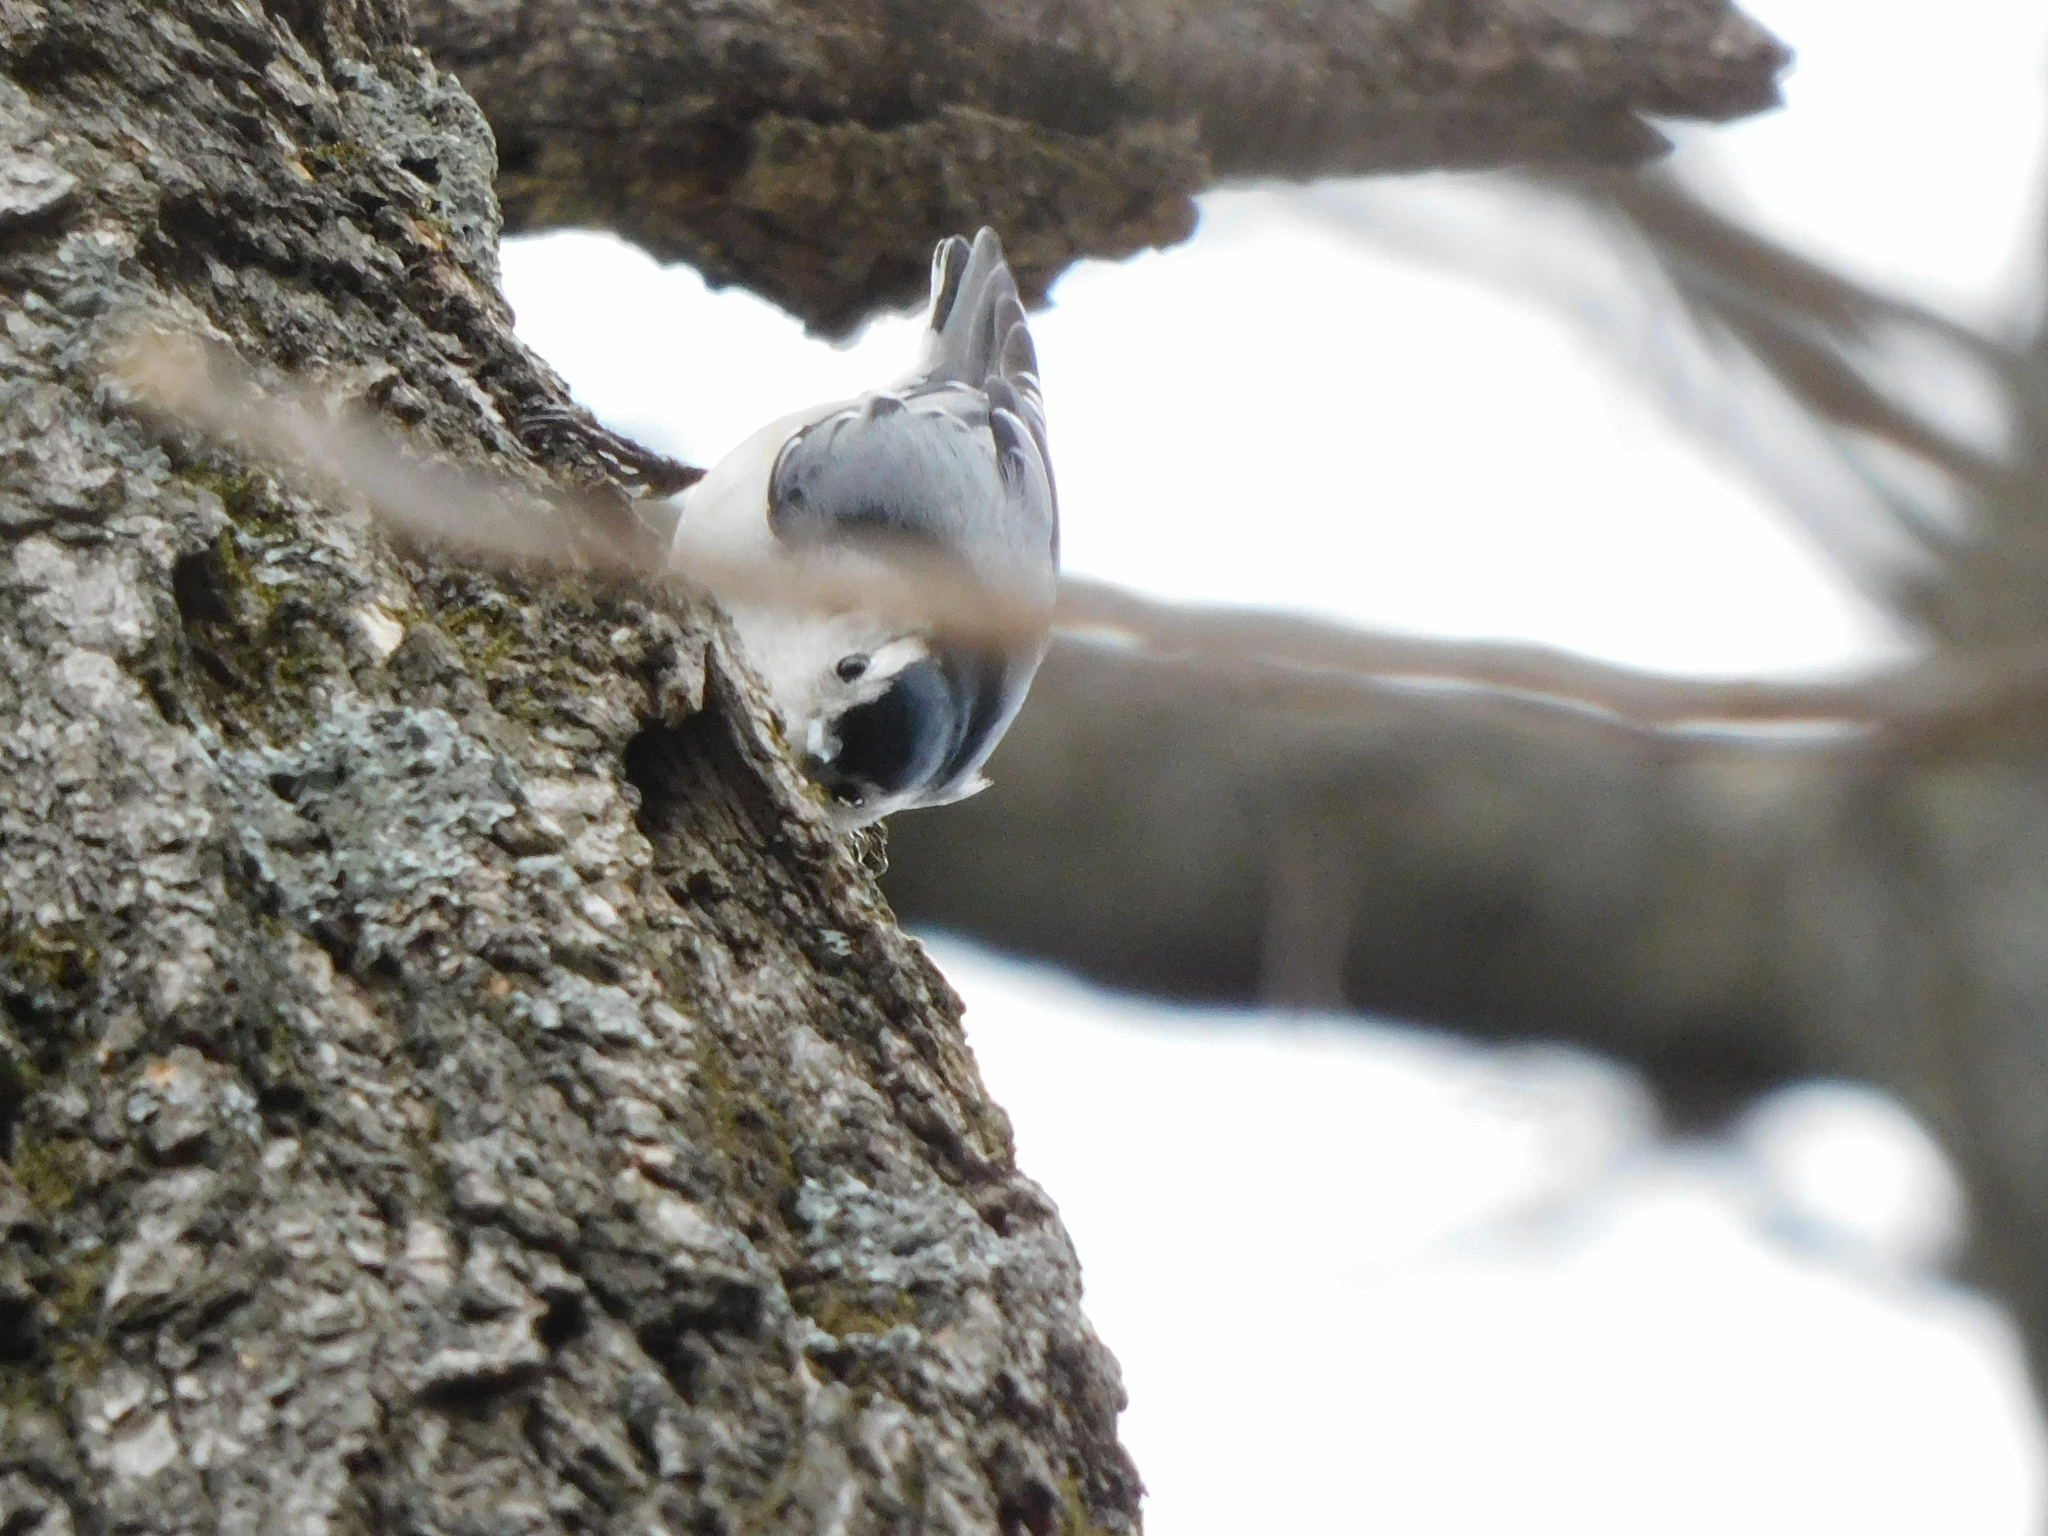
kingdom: Animalia
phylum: Chordata
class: Aves
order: Passeriformes
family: Sittidae
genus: Sitta
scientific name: Sitta carolinensis
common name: White-breasted nuthatch
